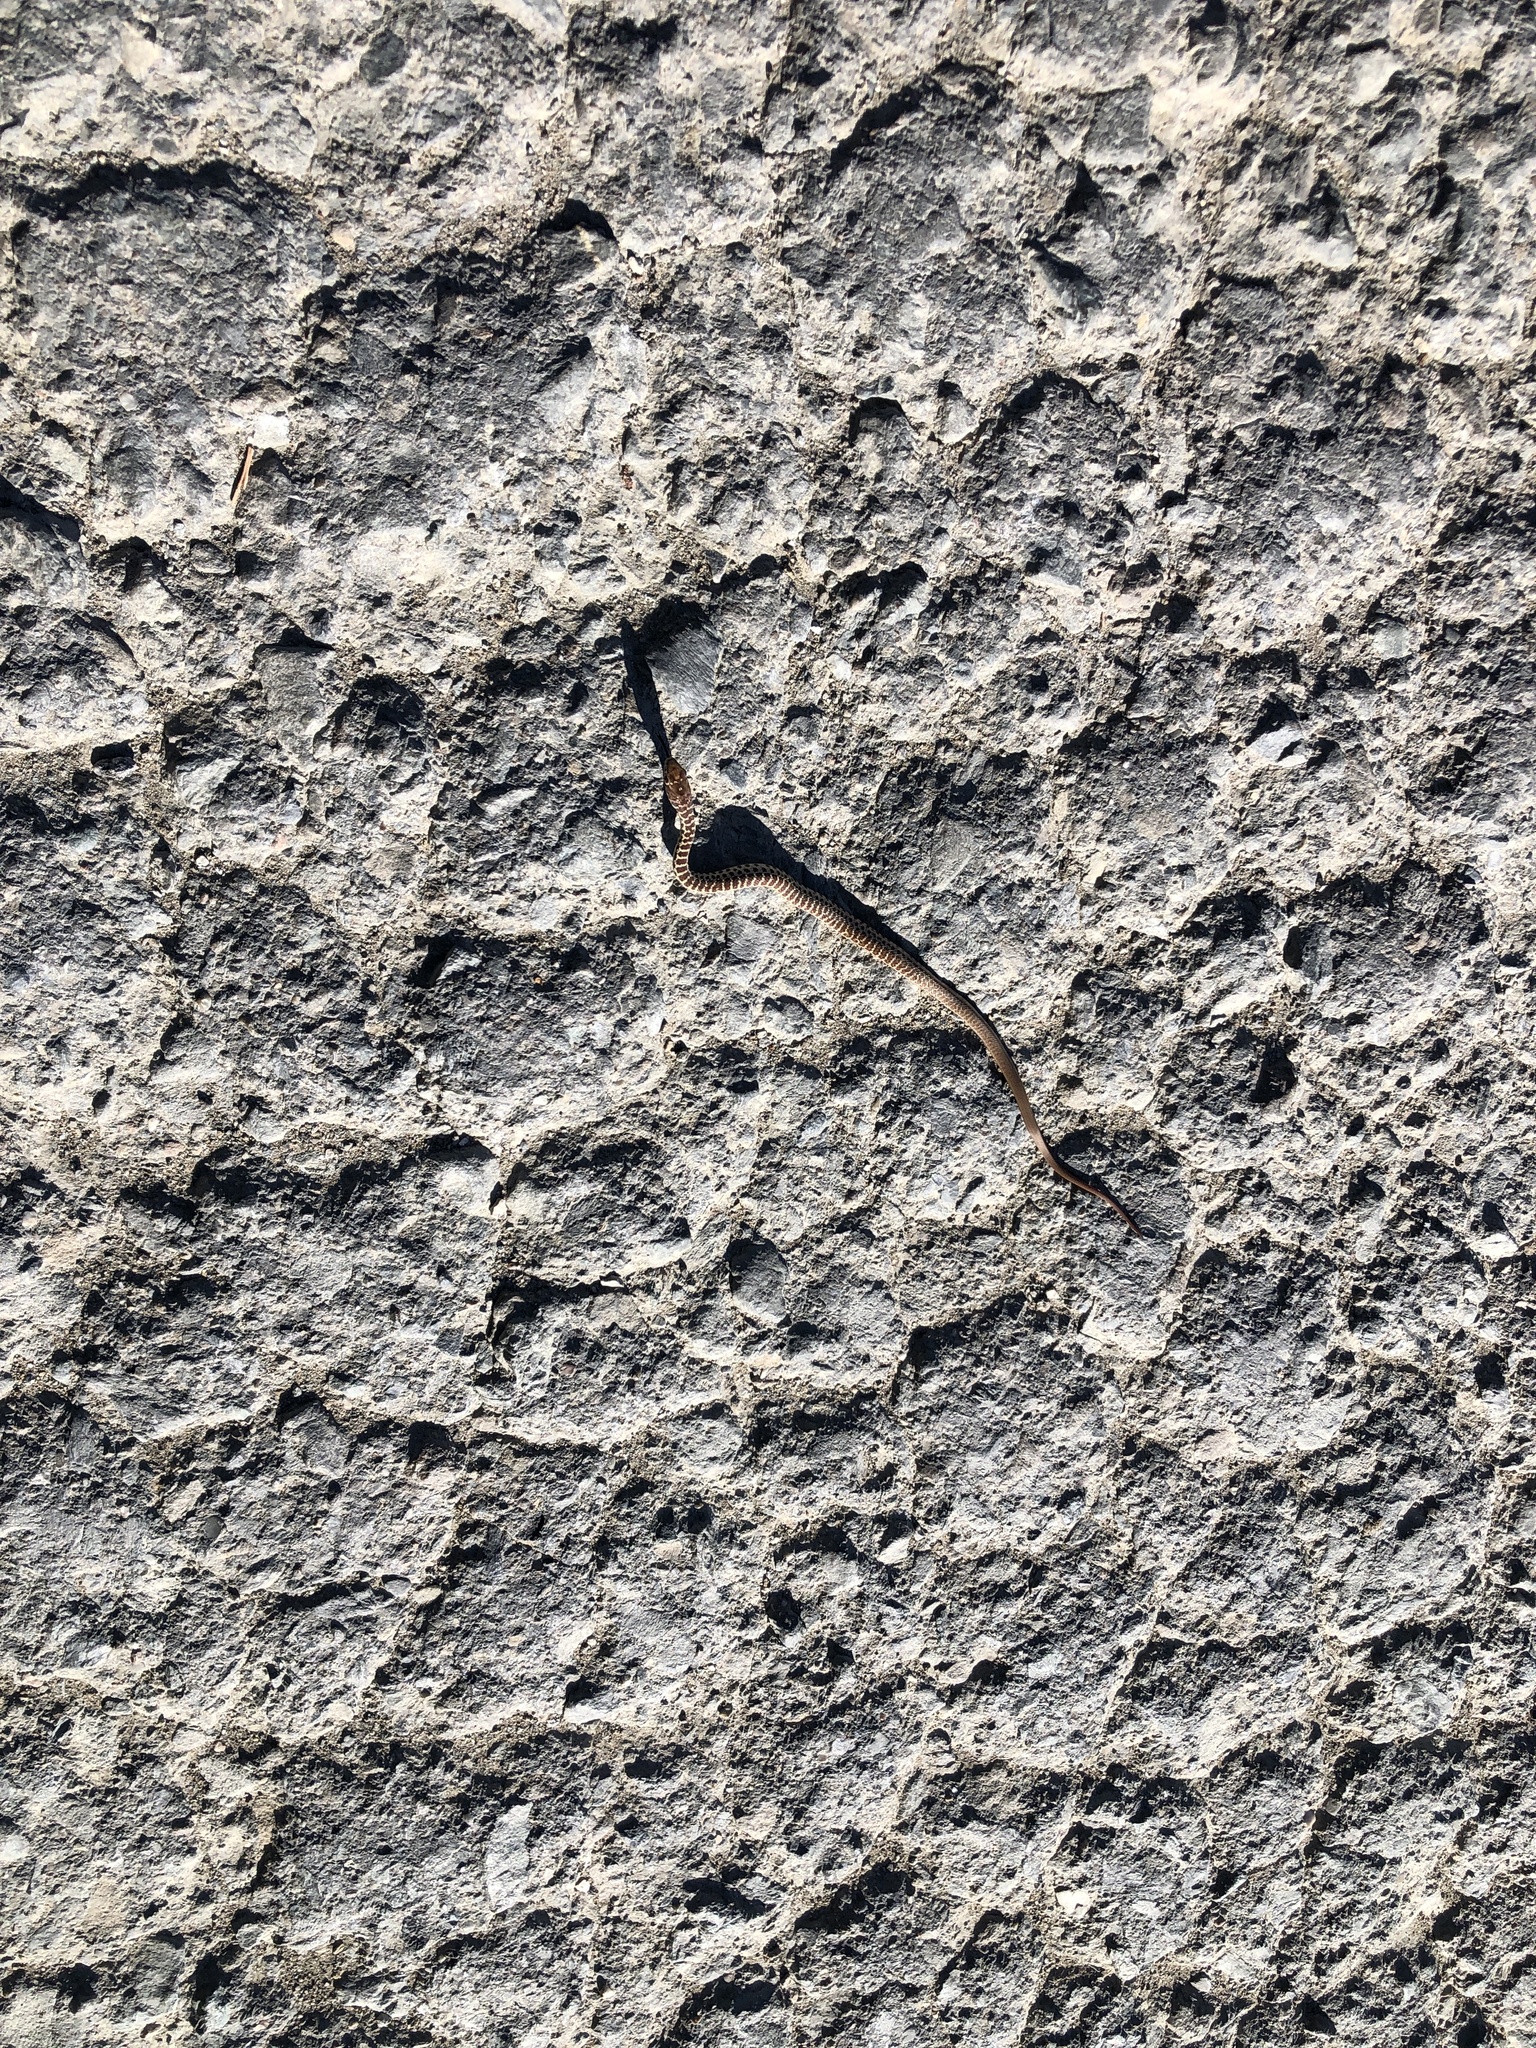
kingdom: Animalia
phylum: Chordata
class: Squamata
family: Colubridae
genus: Coluber
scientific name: Coluber constrictor
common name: Eastern racer
